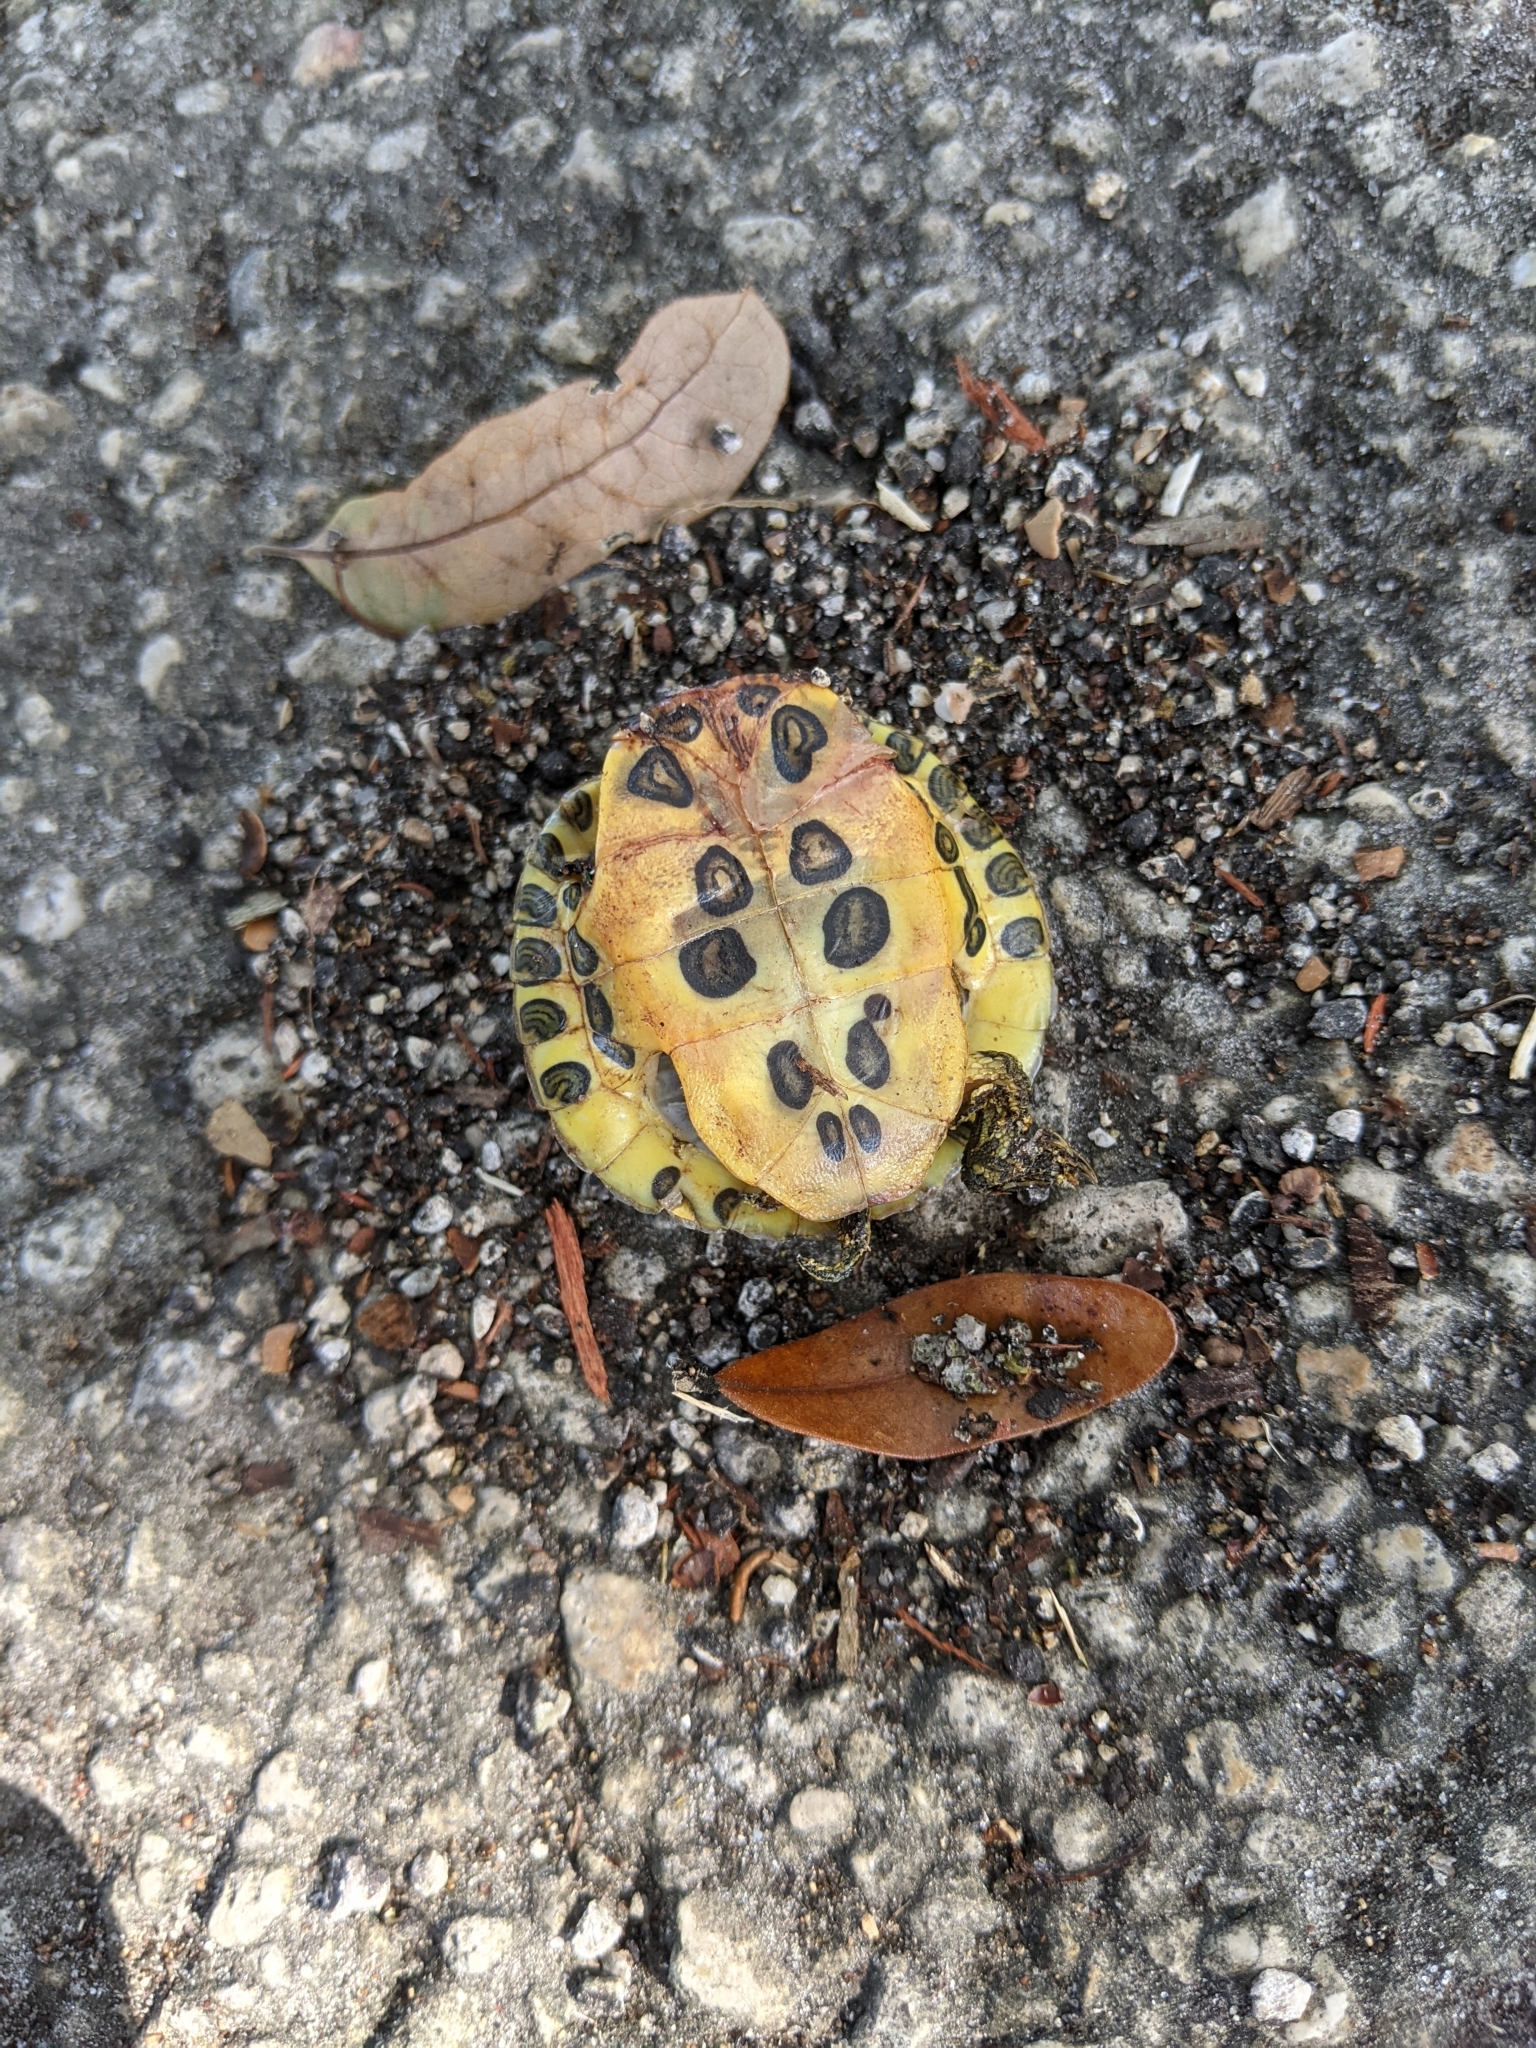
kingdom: Animalia
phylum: Chordata
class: Testudines
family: Emydidae
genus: Trachemys
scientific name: Trachemys scripta
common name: Slider
